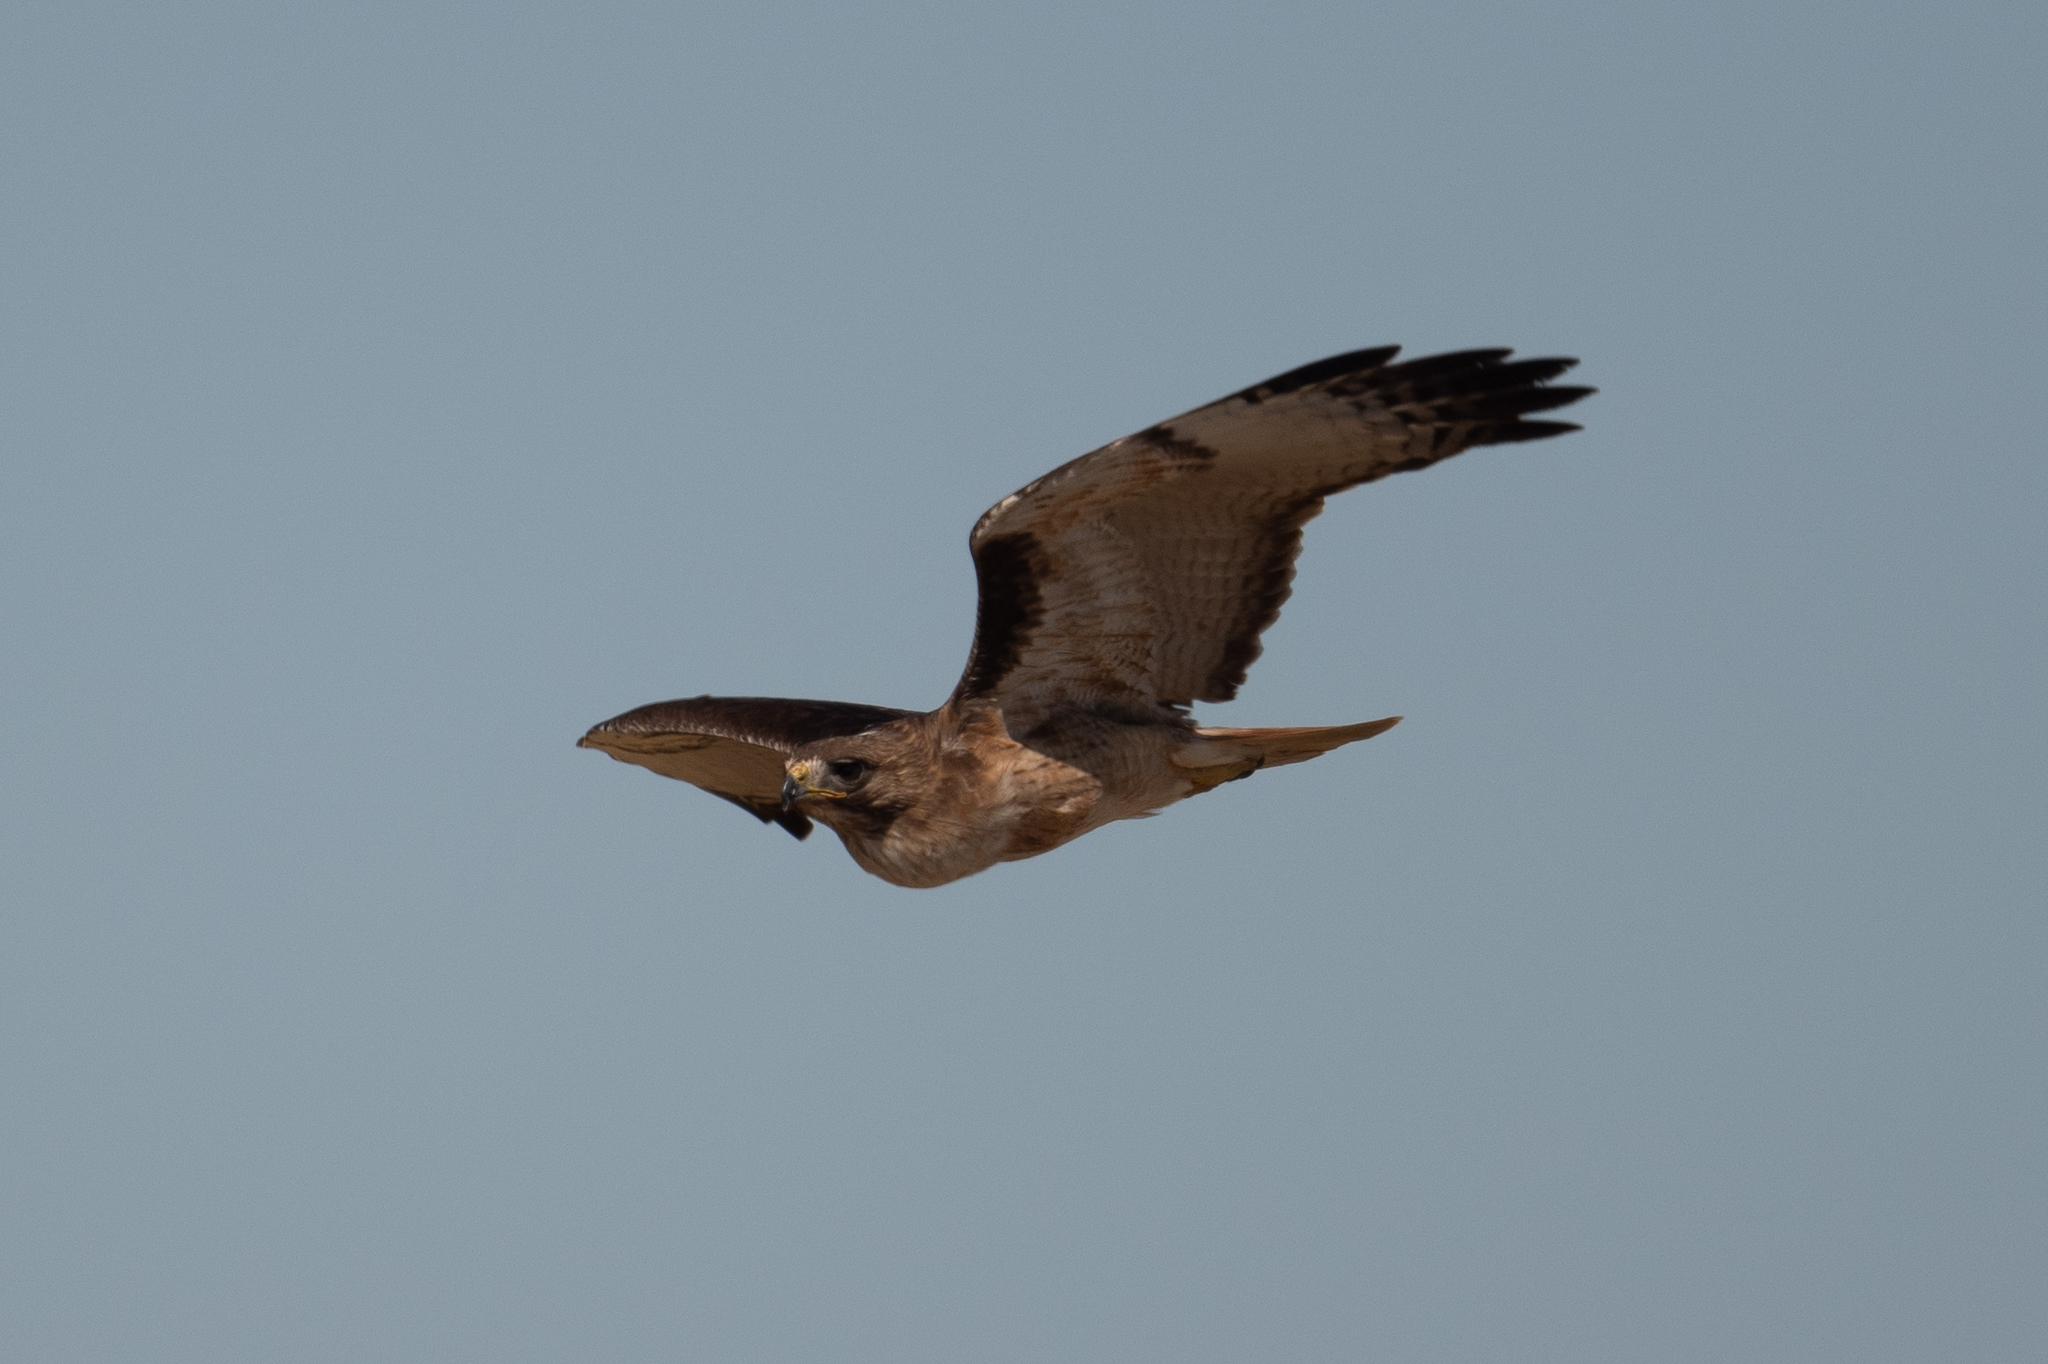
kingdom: Animalia
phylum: Chordata
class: Aves
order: Accipitriformes
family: Accipitridae
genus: Buteo
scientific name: Buteo jamaicensis
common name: Red-tailed hawk
